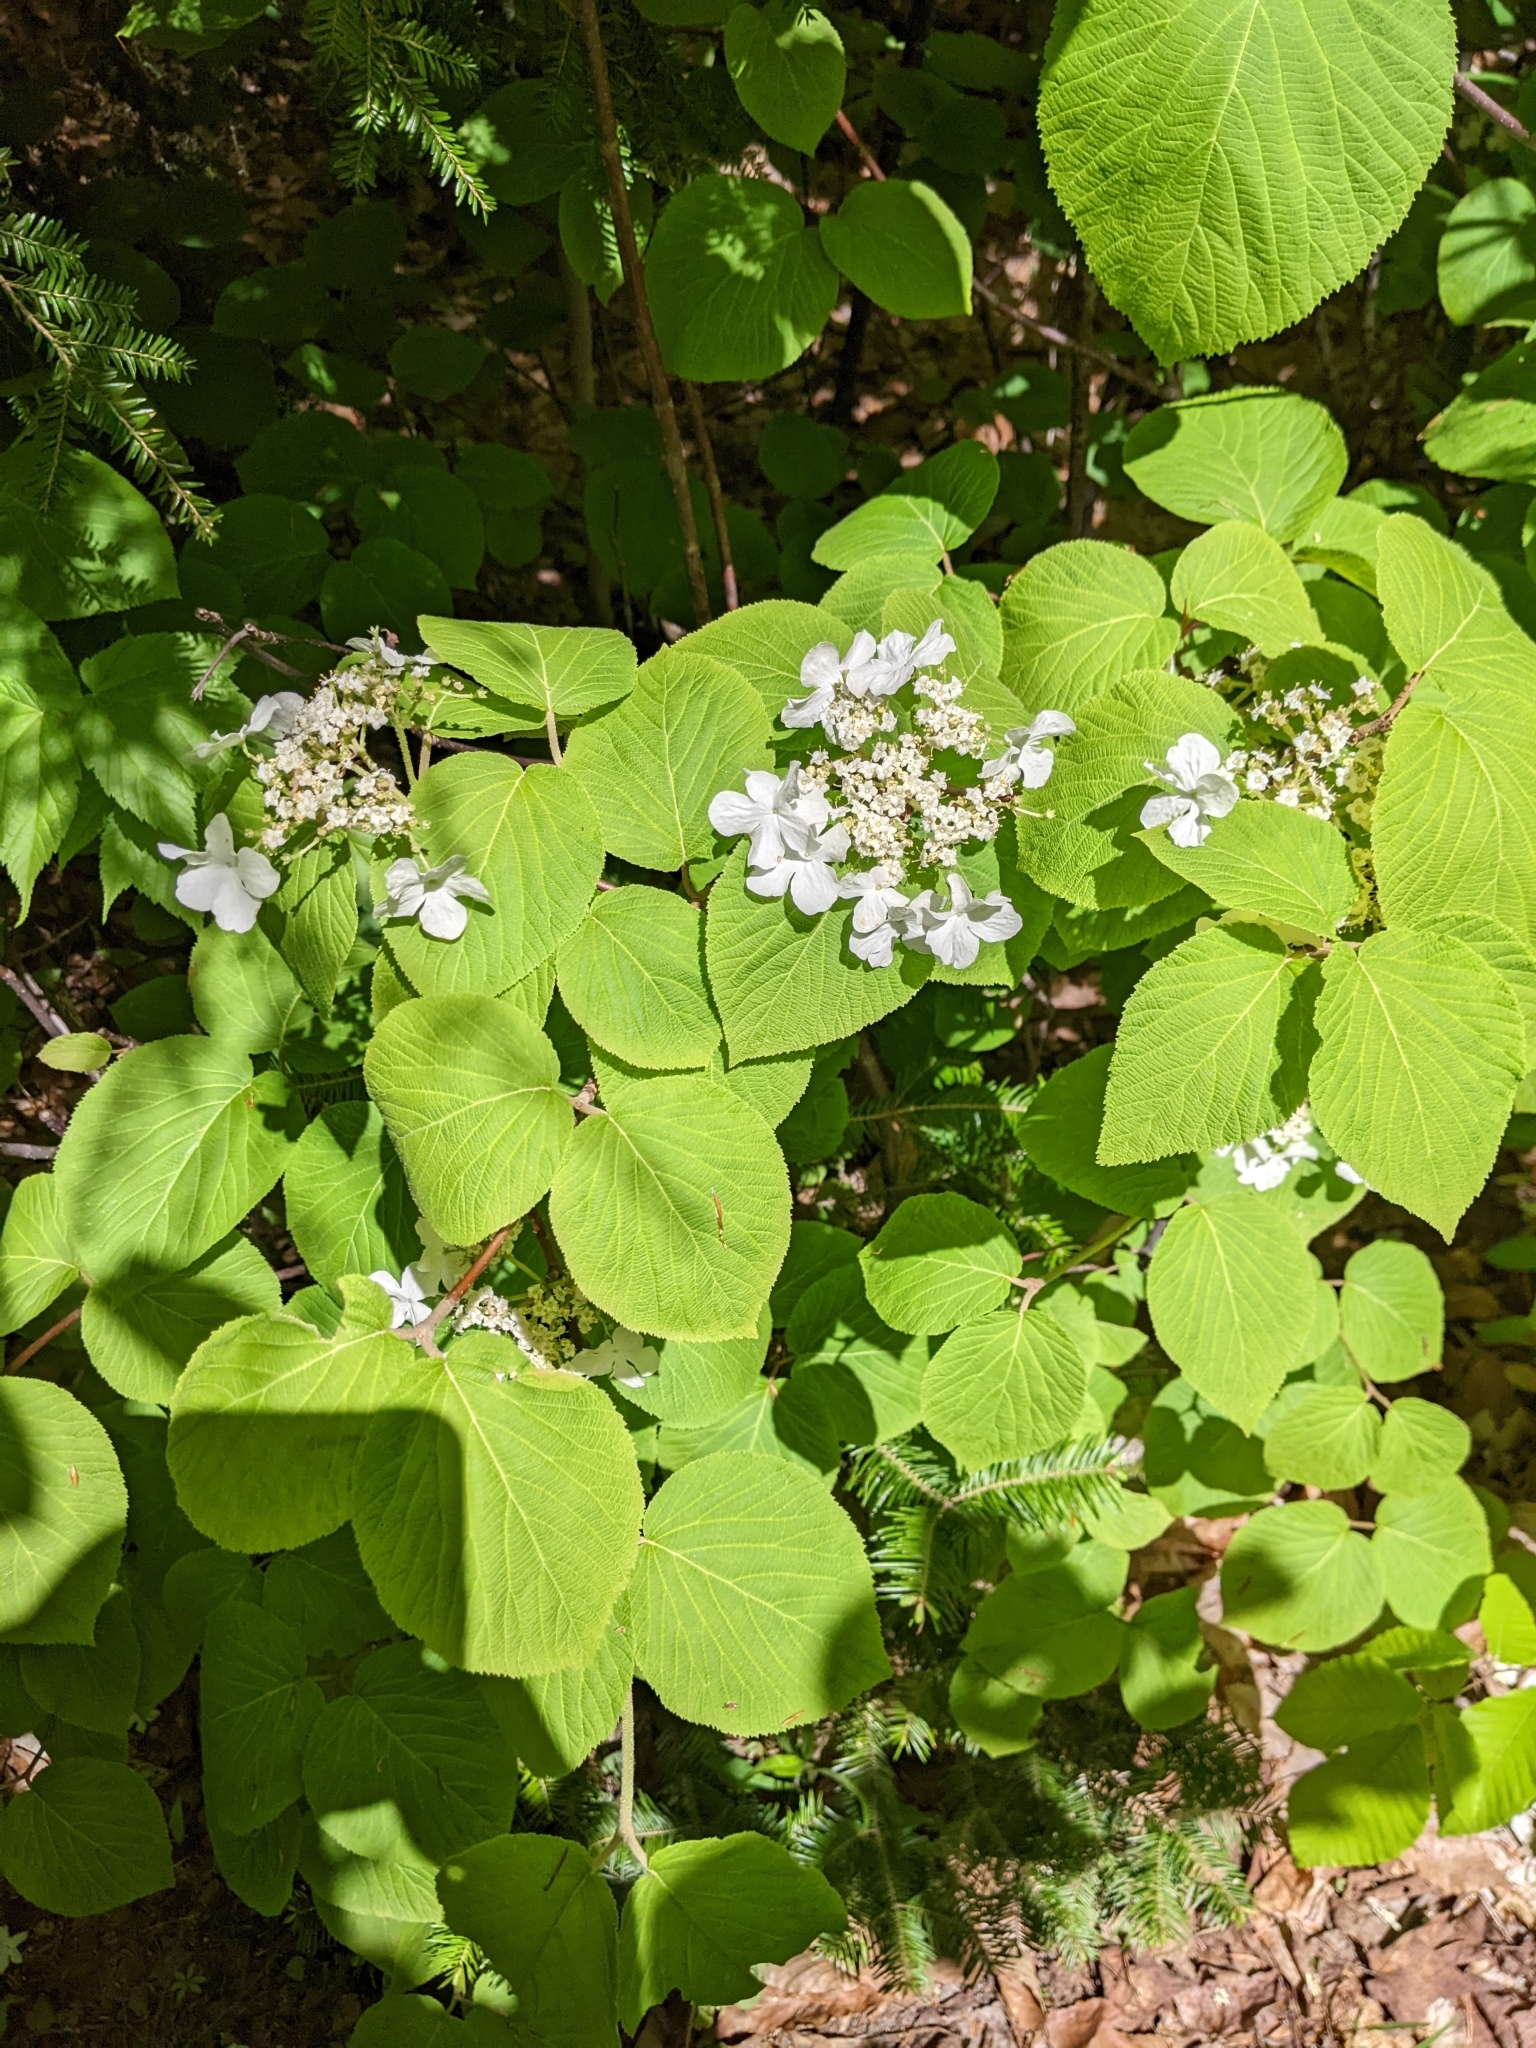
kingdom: Plantae
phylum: Tracheophyta
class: Magnoliopsida
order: Dipsacales
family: Viburnaceae
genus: Viburnum
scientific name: Viburnum lantanoides
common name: Hobblebush
